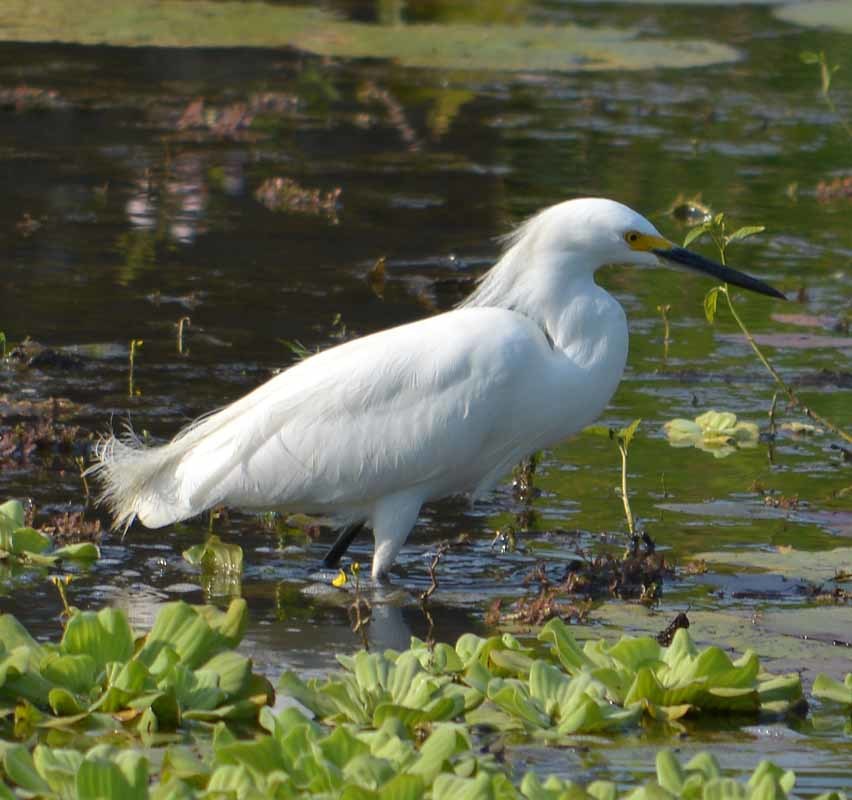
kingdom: Animalia
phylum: Chordata
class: Aves
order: Pelecaniformes
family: Ardeidae
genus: Egretta
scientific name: Egretta thula
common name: Snowy egret
